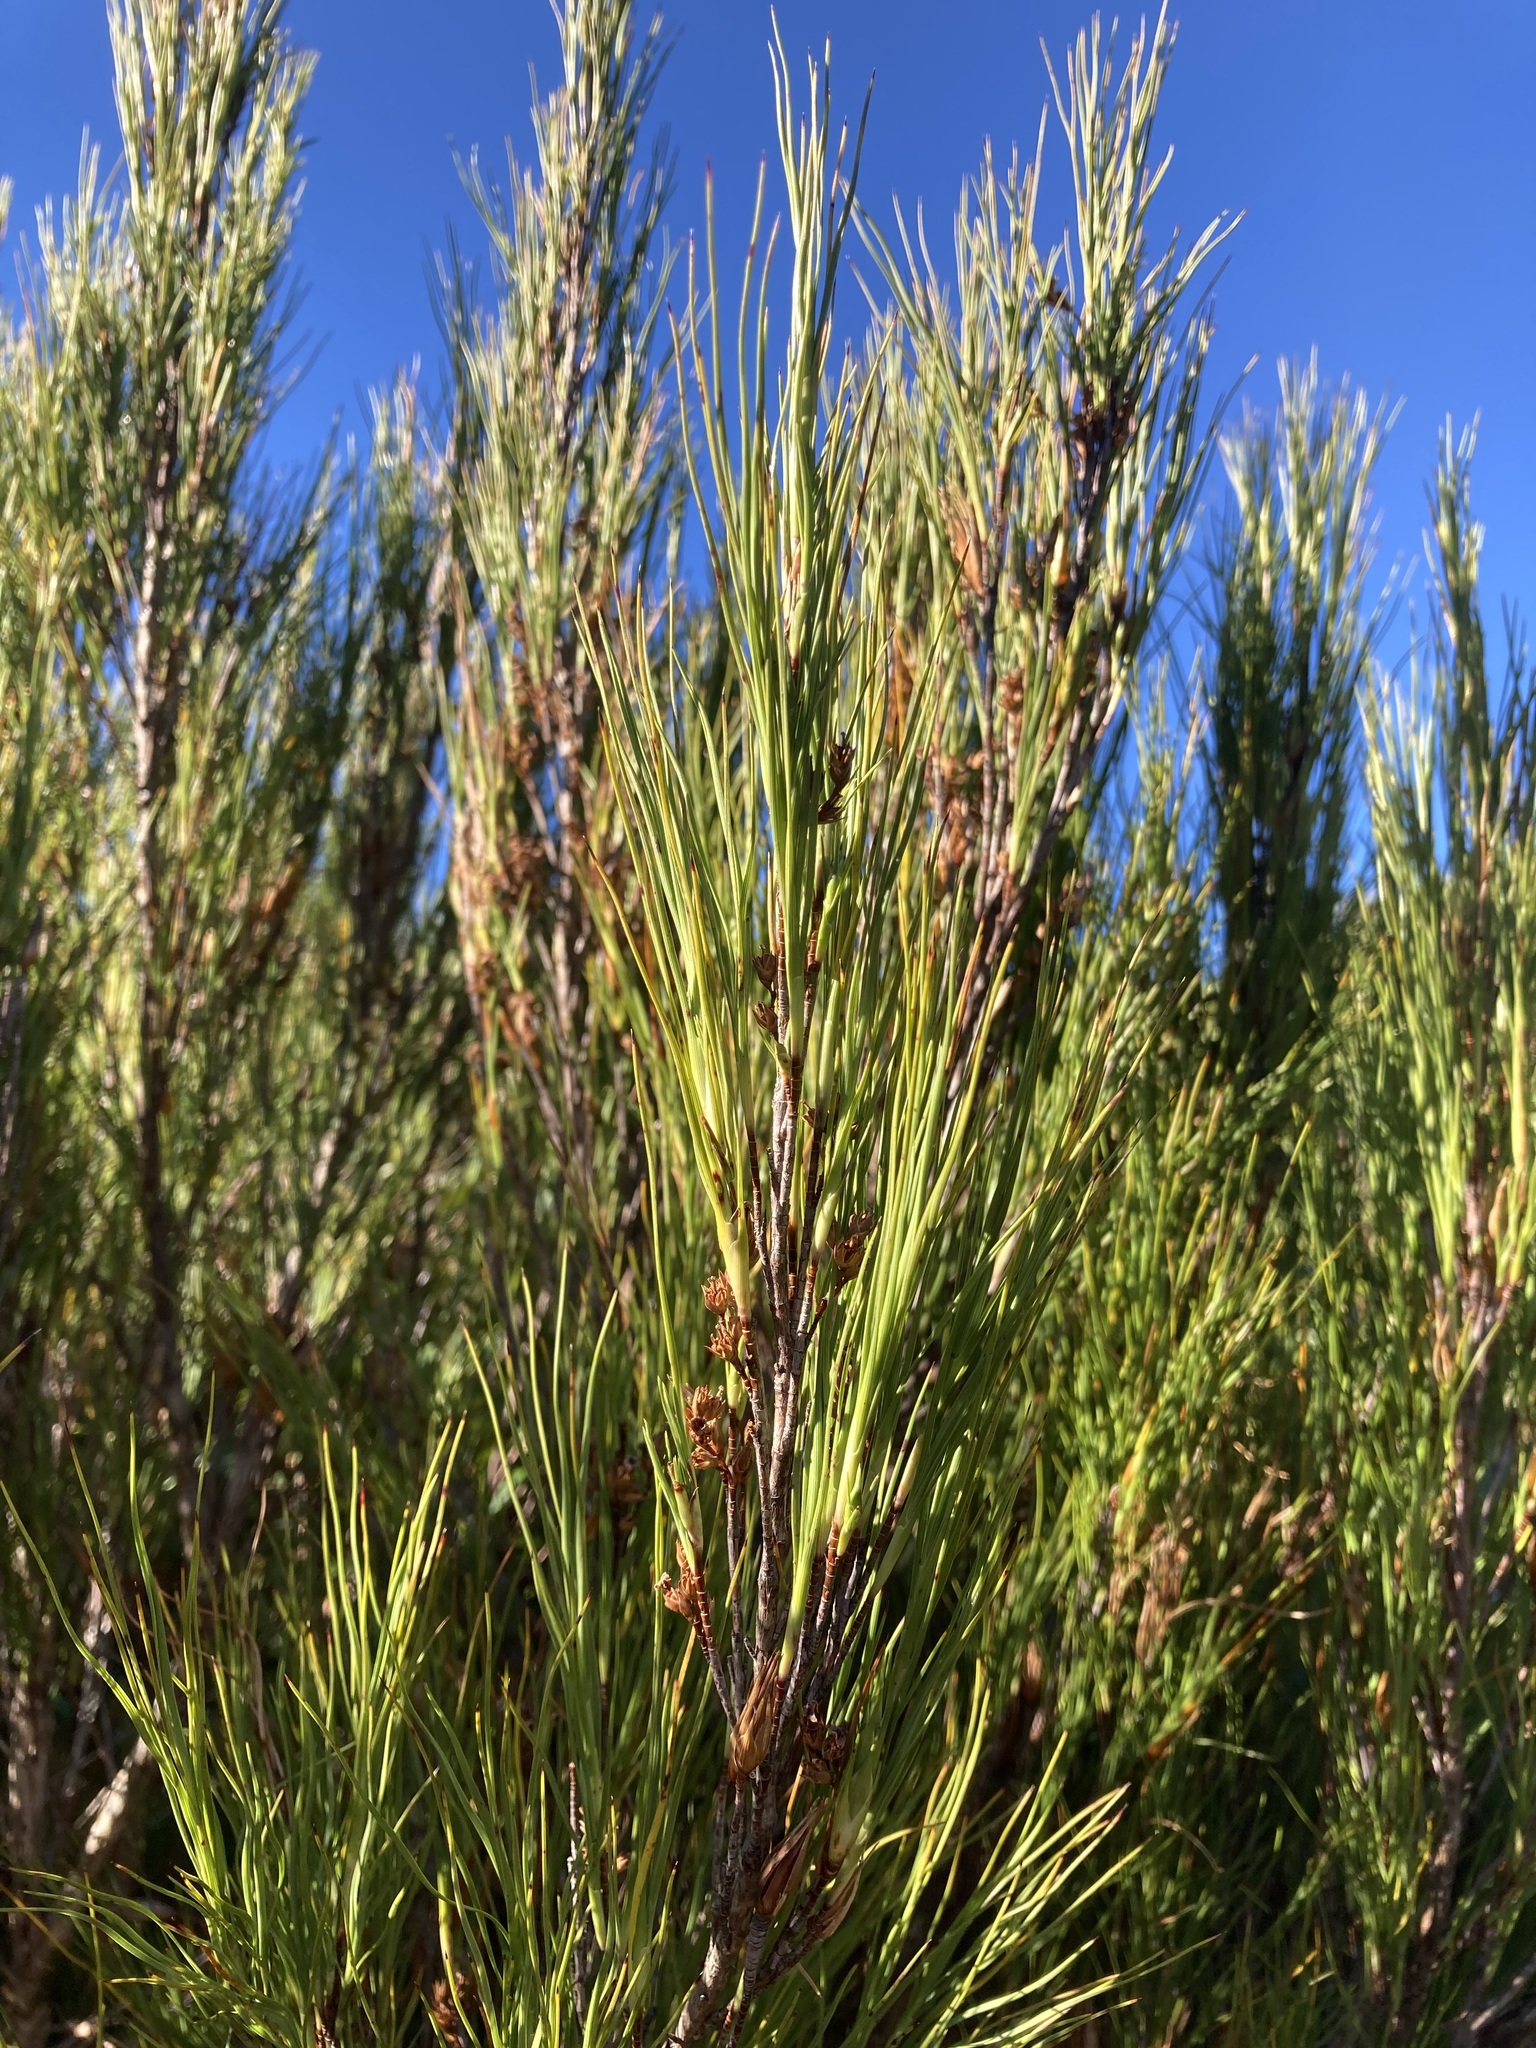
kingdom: Plantae
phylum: Tracheophyta
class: Magnoliopsida
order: Ericales
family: Ericaceae
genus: Dracophyllum
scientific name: Dracophyllum filifolium
